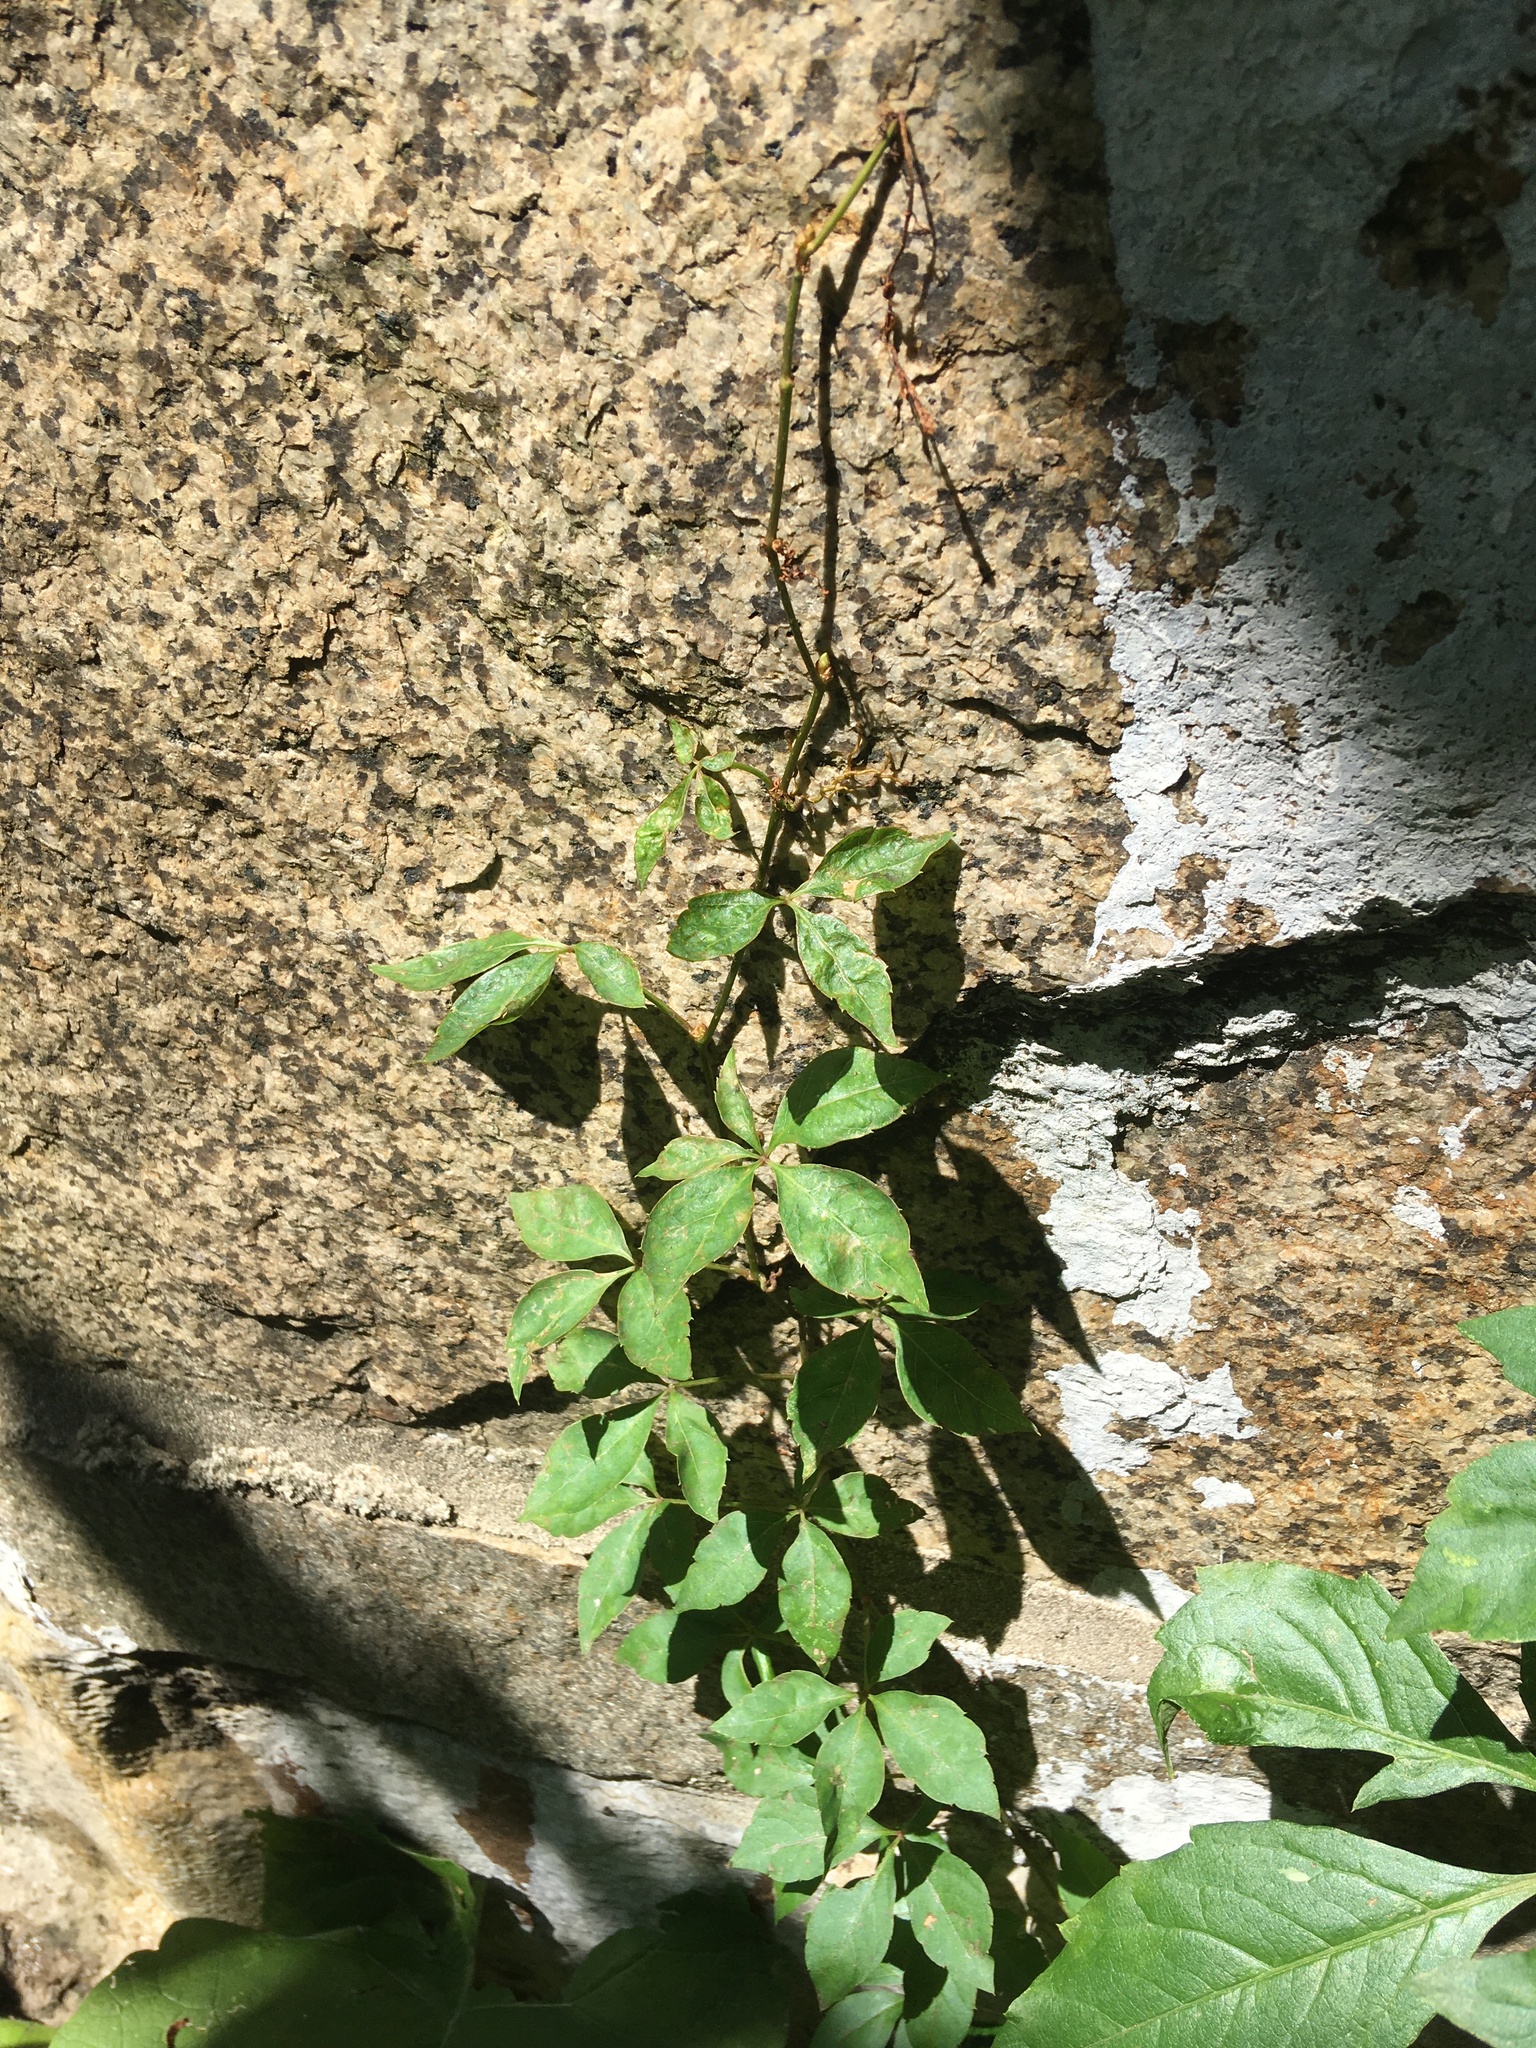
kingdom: Plantae
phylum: Tracheophyta
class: Magnoliopsida
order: Vitales
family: Vitaceae
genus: Parthenocissus
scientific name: Parthenocissus quinquefolia
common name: Virginia-creeper
